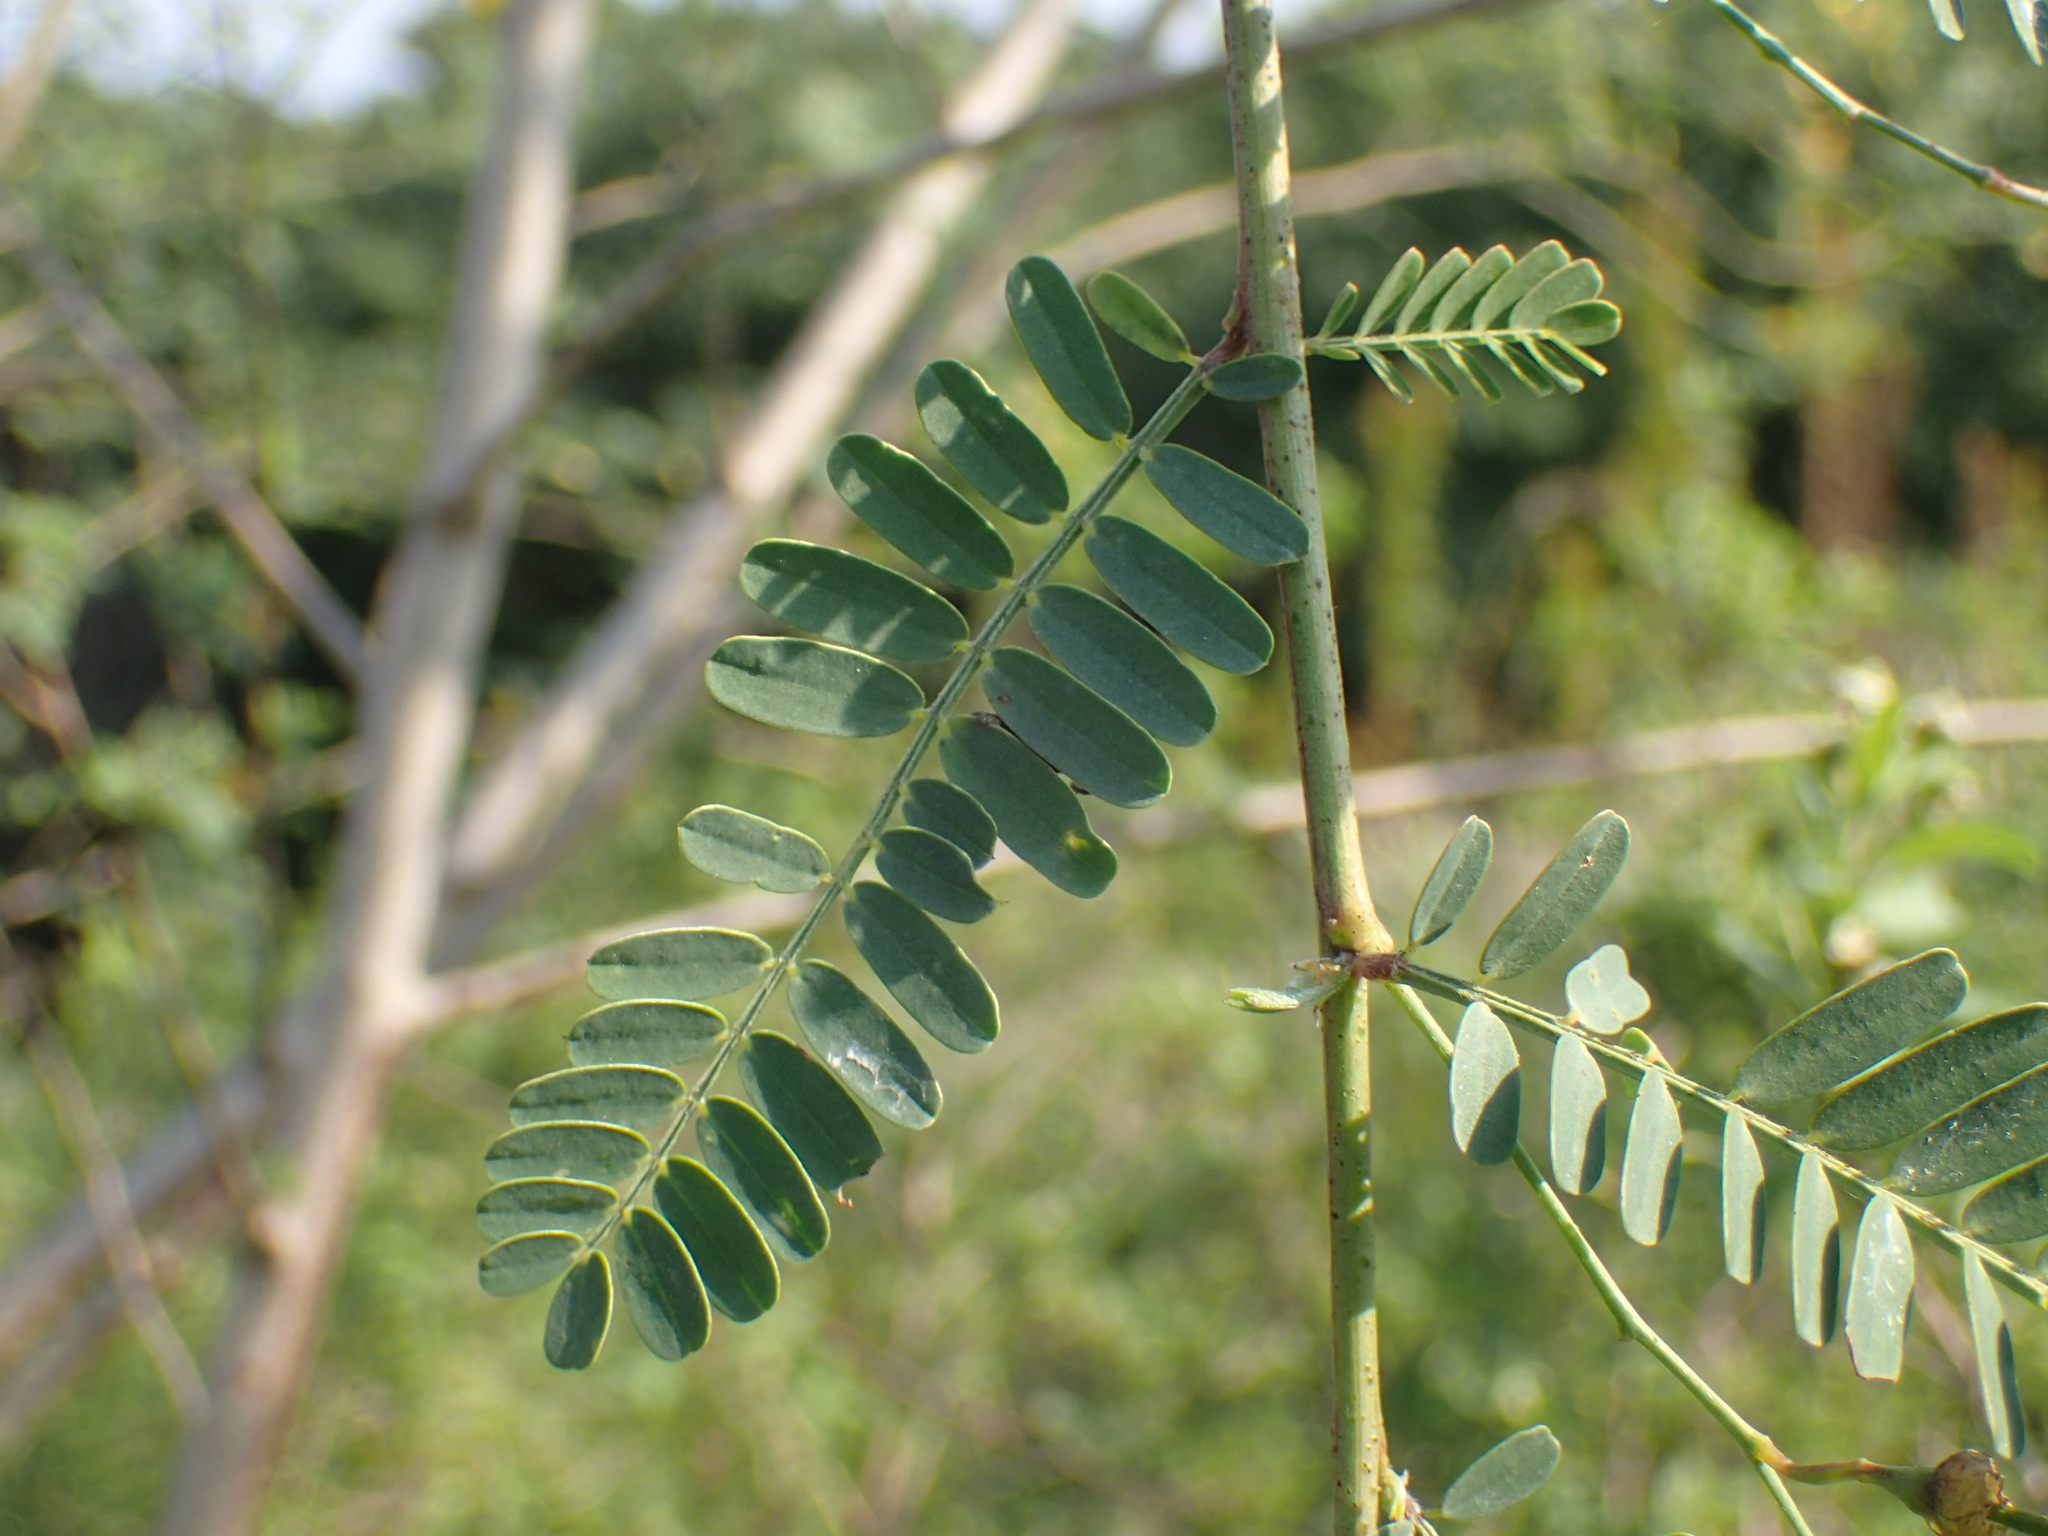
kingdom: Plantae
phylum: Tracheophyta
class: Magnoliopsida
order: Fabales
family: Fabaceae
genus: Sesbania
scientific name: Sesbania sesban
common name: Egyptian sesban
